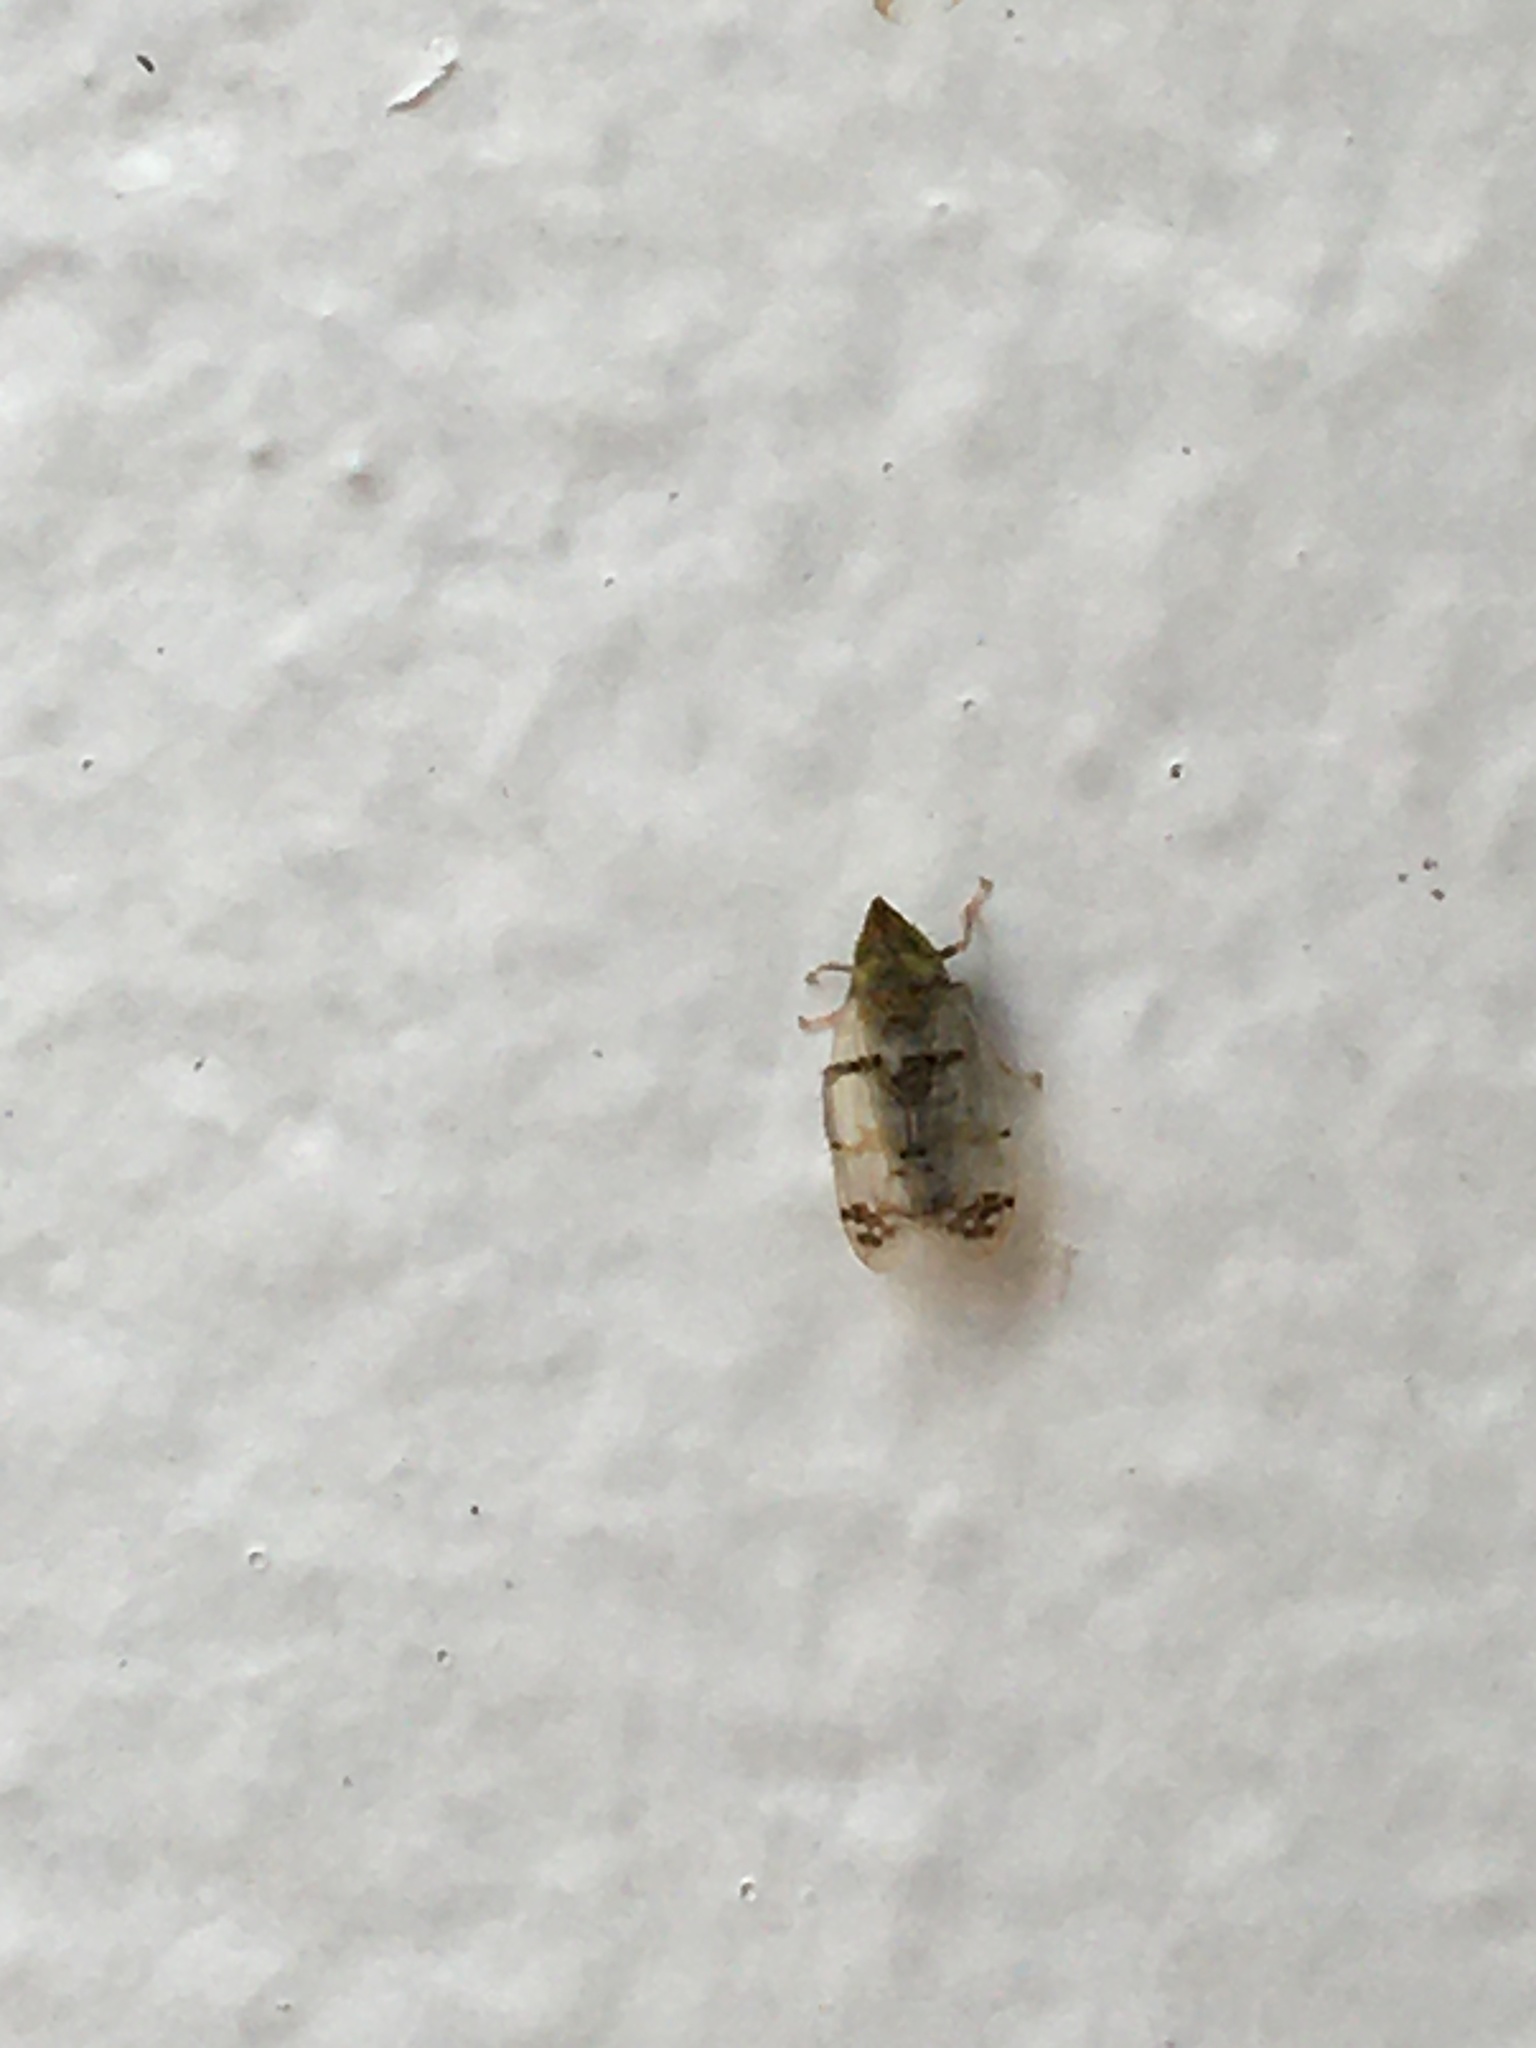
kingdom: Animalia
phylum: Arthropoda
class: Insecta
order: Hemiptera
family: Cicadellidae
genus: Japananus
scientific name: Japananus hyalinus
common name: The japanese maple leafhopper
